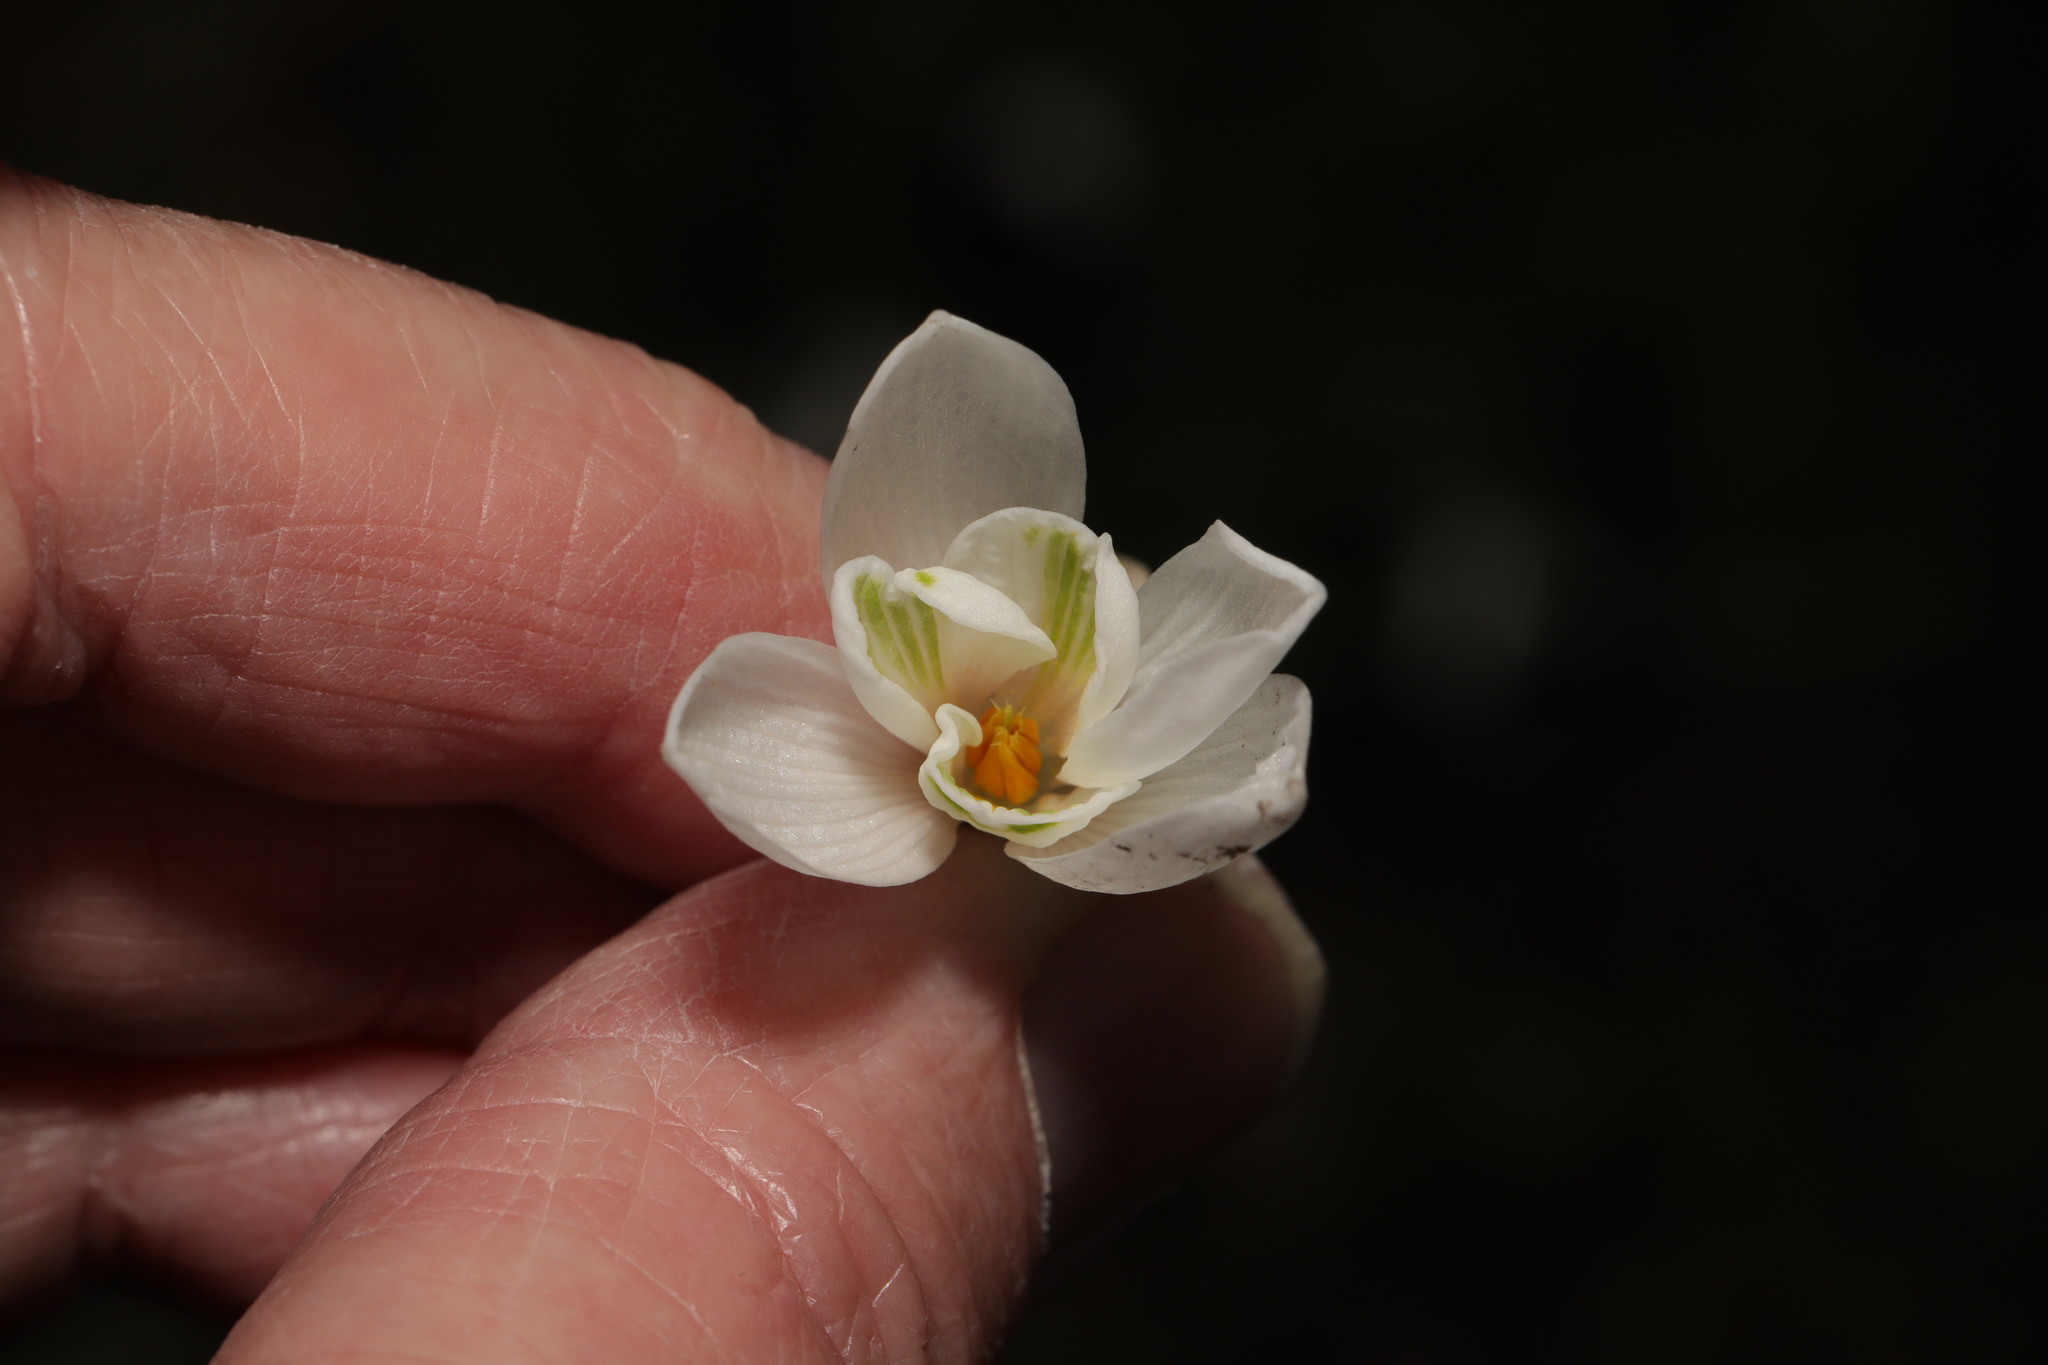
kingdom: Plantae
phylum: Tracheophyta
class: Liliopsida
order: Asparagales
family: Amaryllidaceae
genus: Galanthus
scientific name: Galanthus nivalis
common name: Snowdrop
